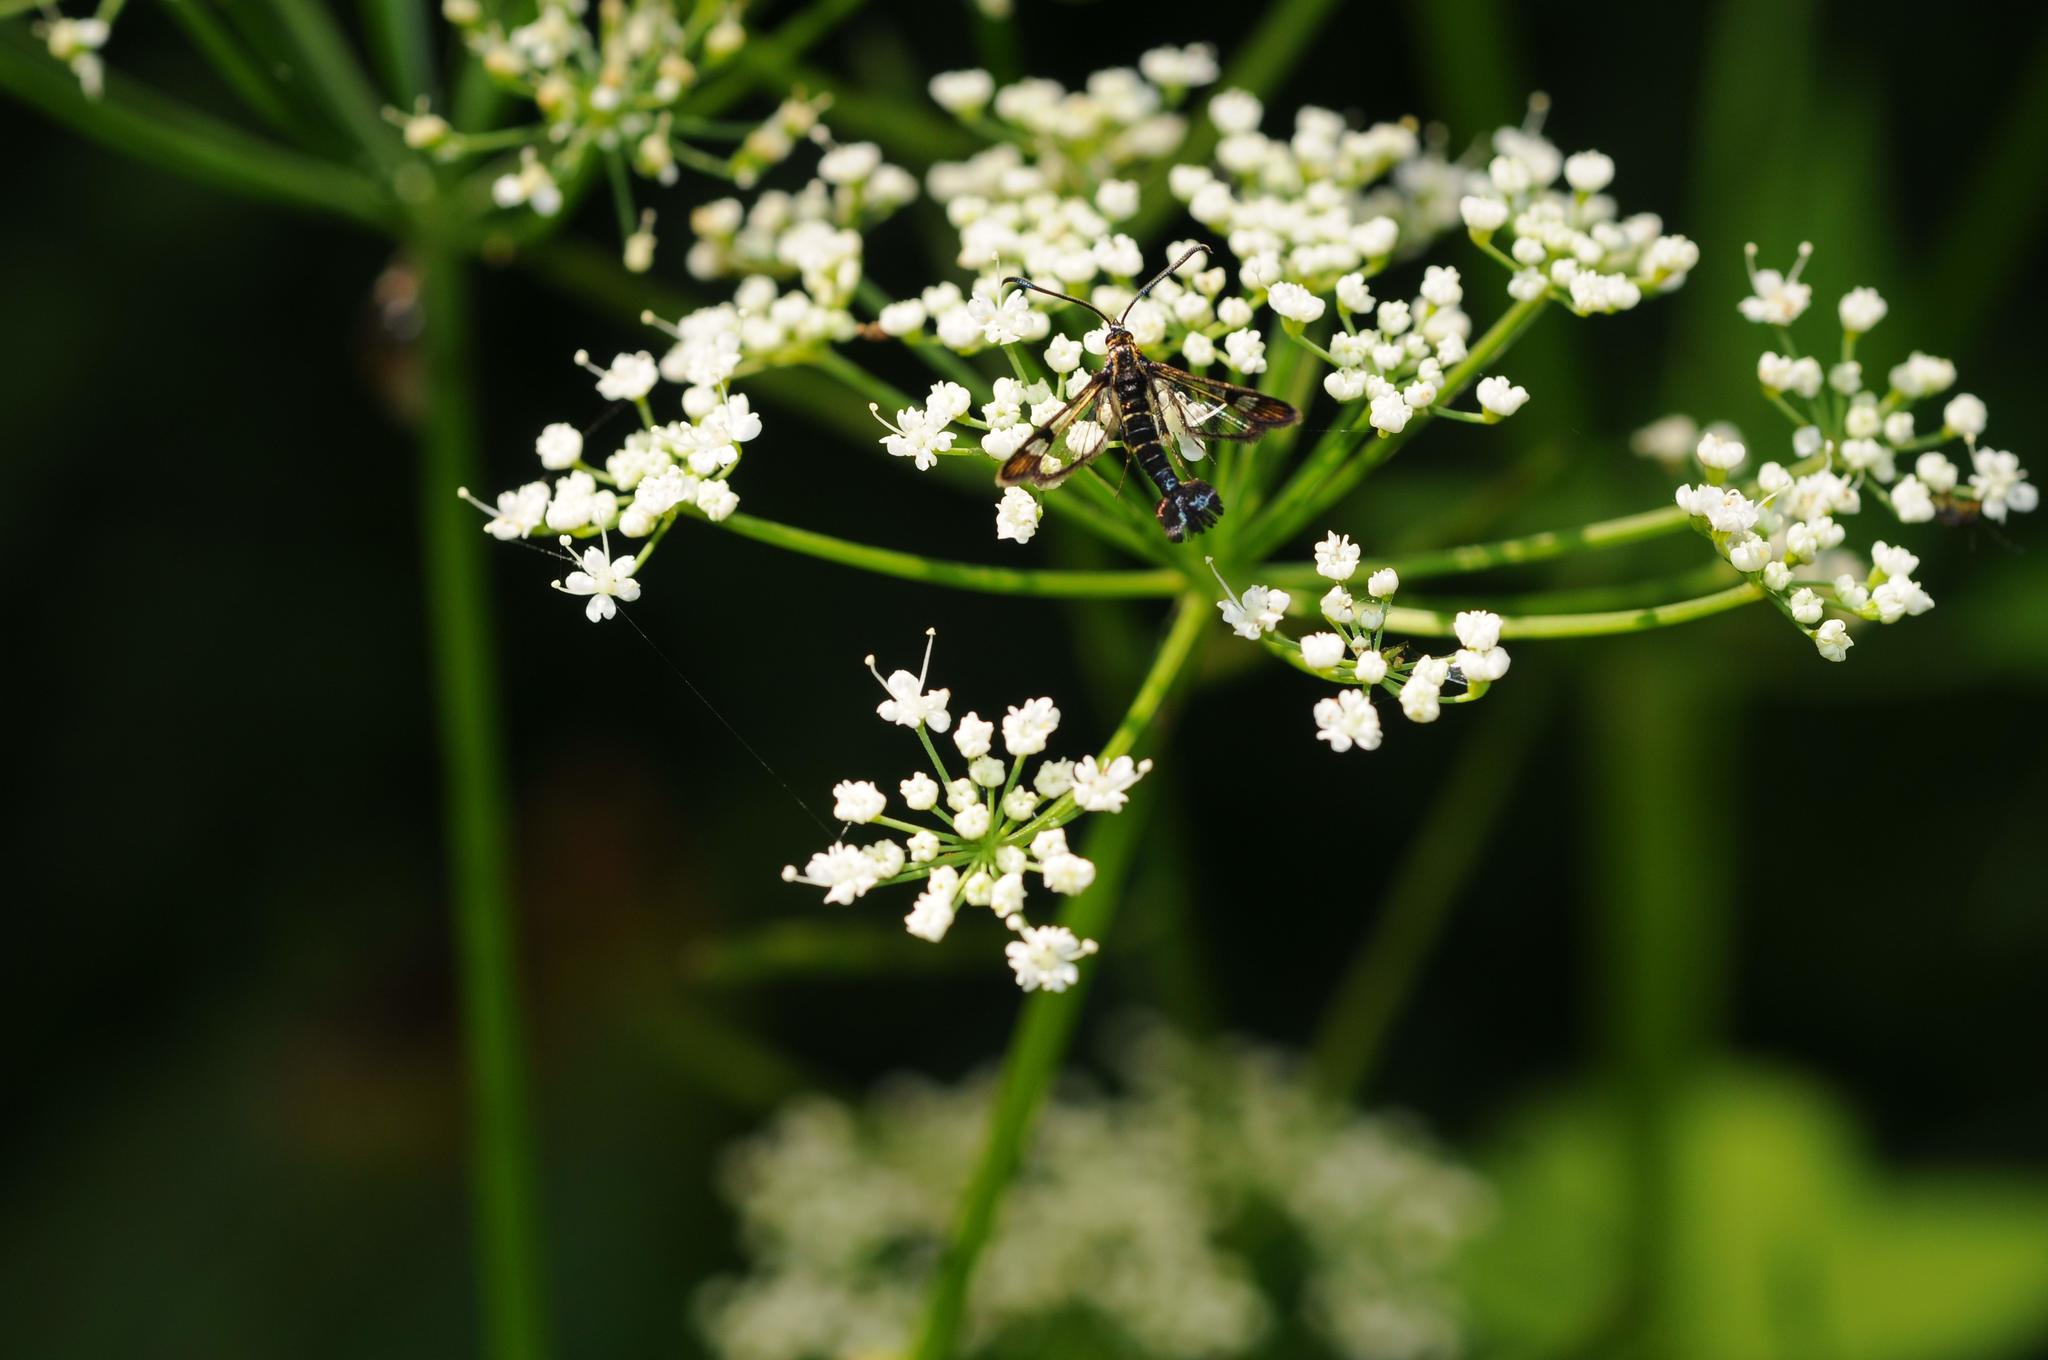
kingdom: Animalia
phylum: Arthropoda
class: Insecta
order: Lepidoptera
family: Sesiidae
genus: Synanthedon
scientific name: Synanthedon tipuliformis
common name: Currant clearwing
